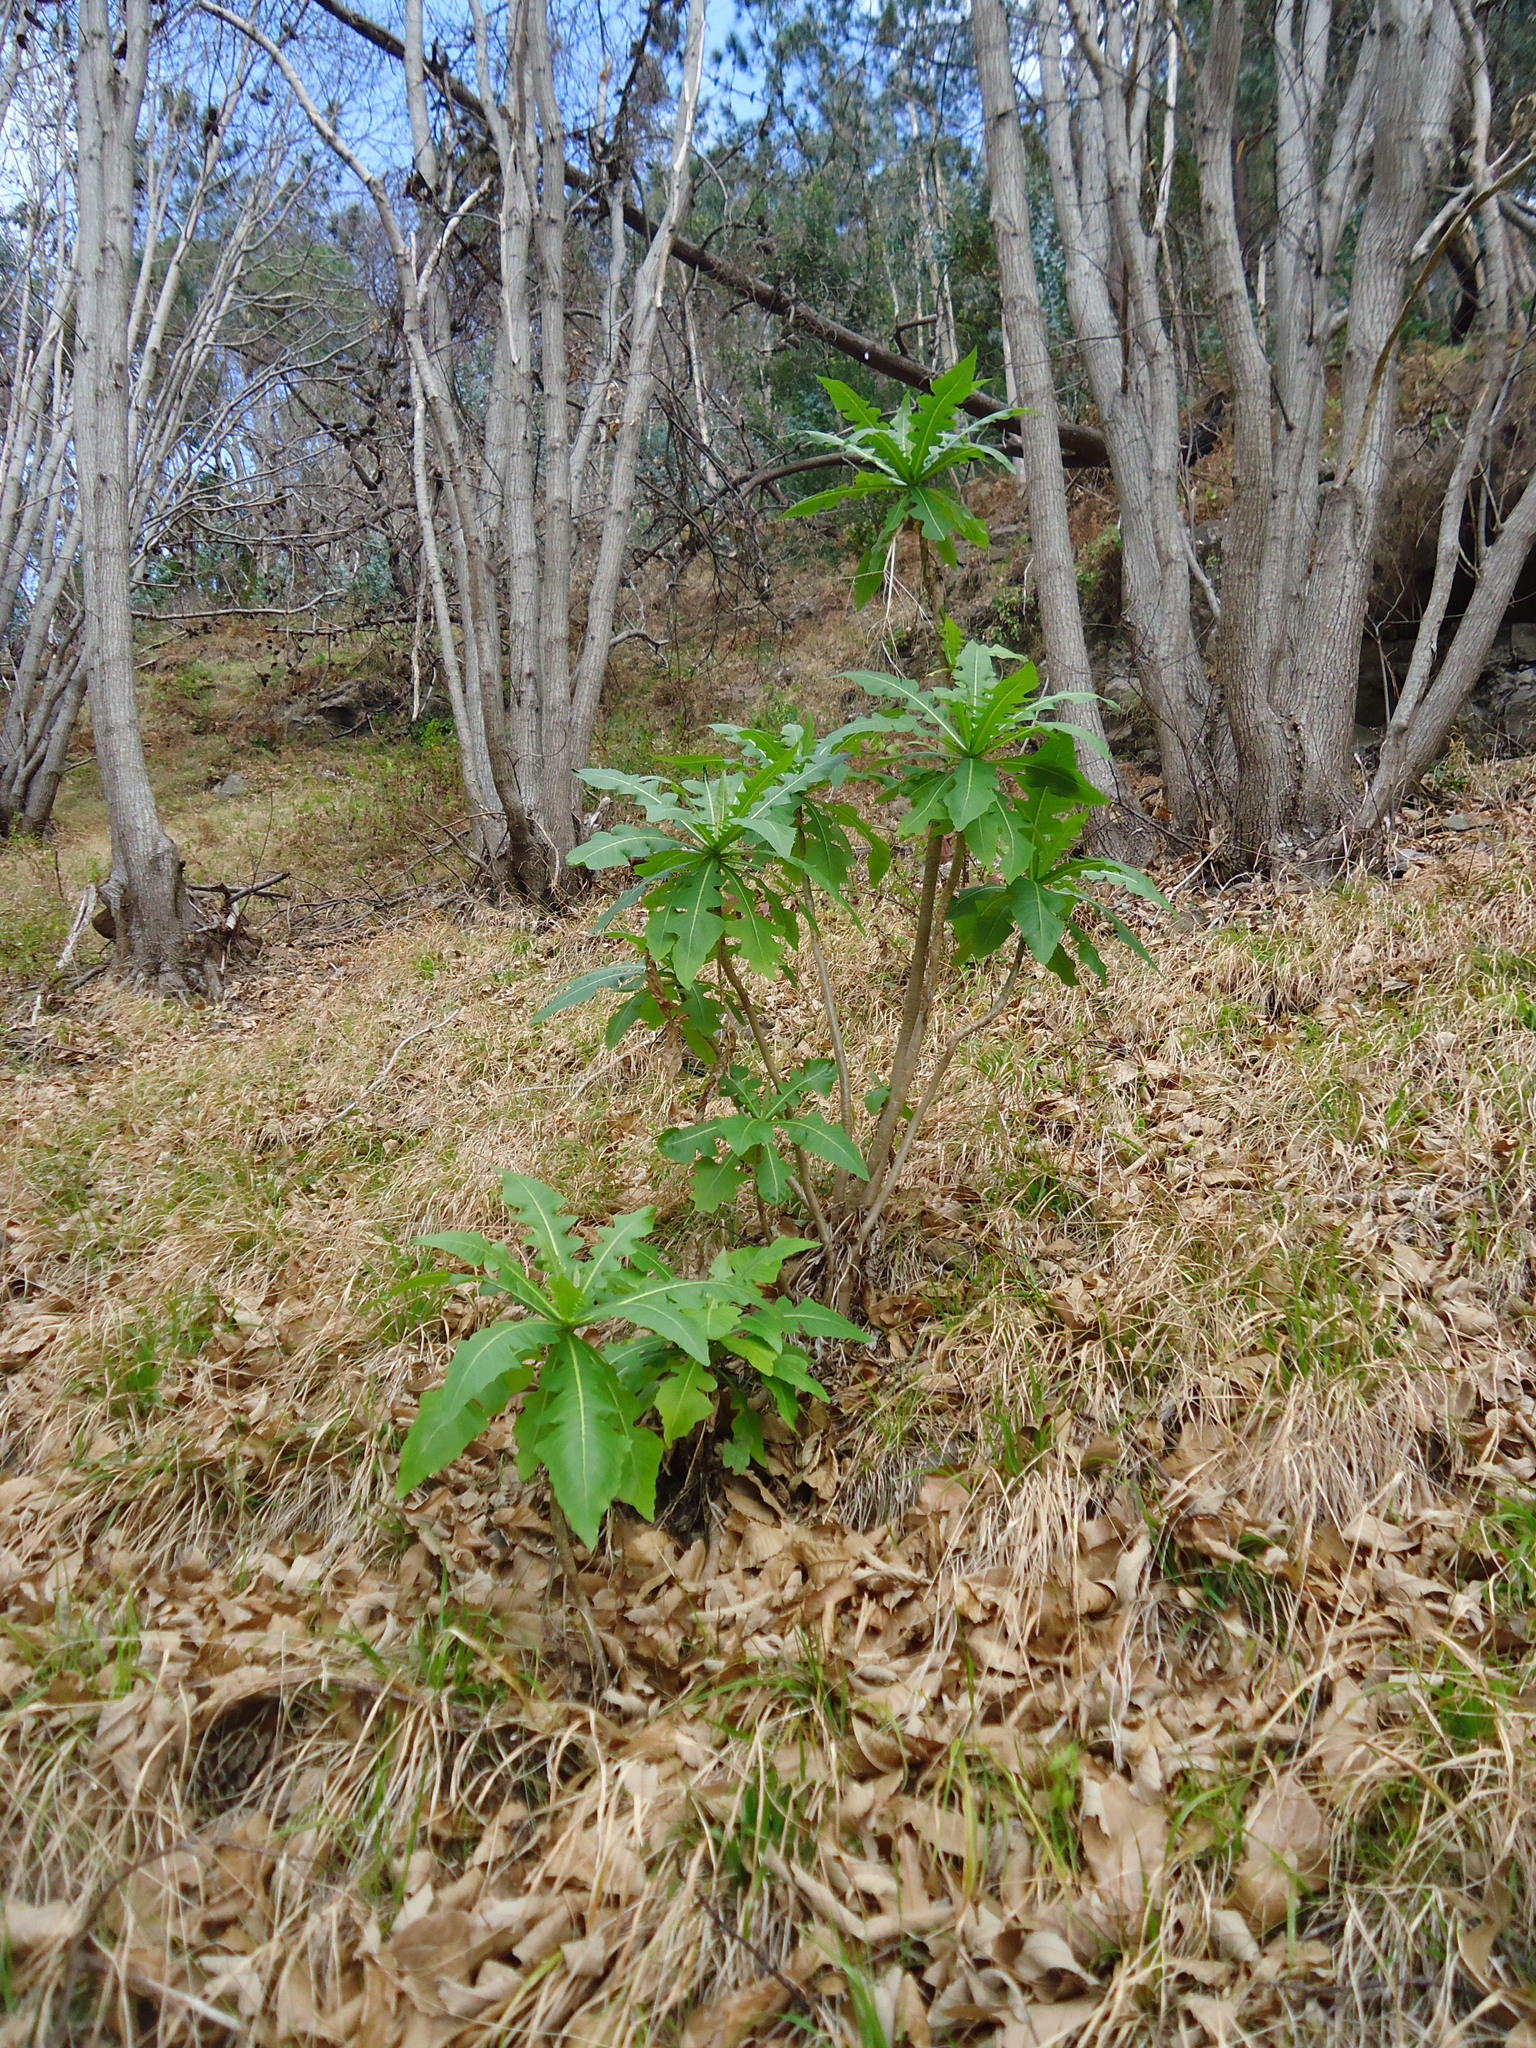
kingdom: Plantae
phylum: Tracheophyta
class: Magnoliopsida
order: Asterales
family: Asteraceae
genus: Sonchus
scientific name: Sonchus fruticosus
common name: Shrubby sow-thistle
